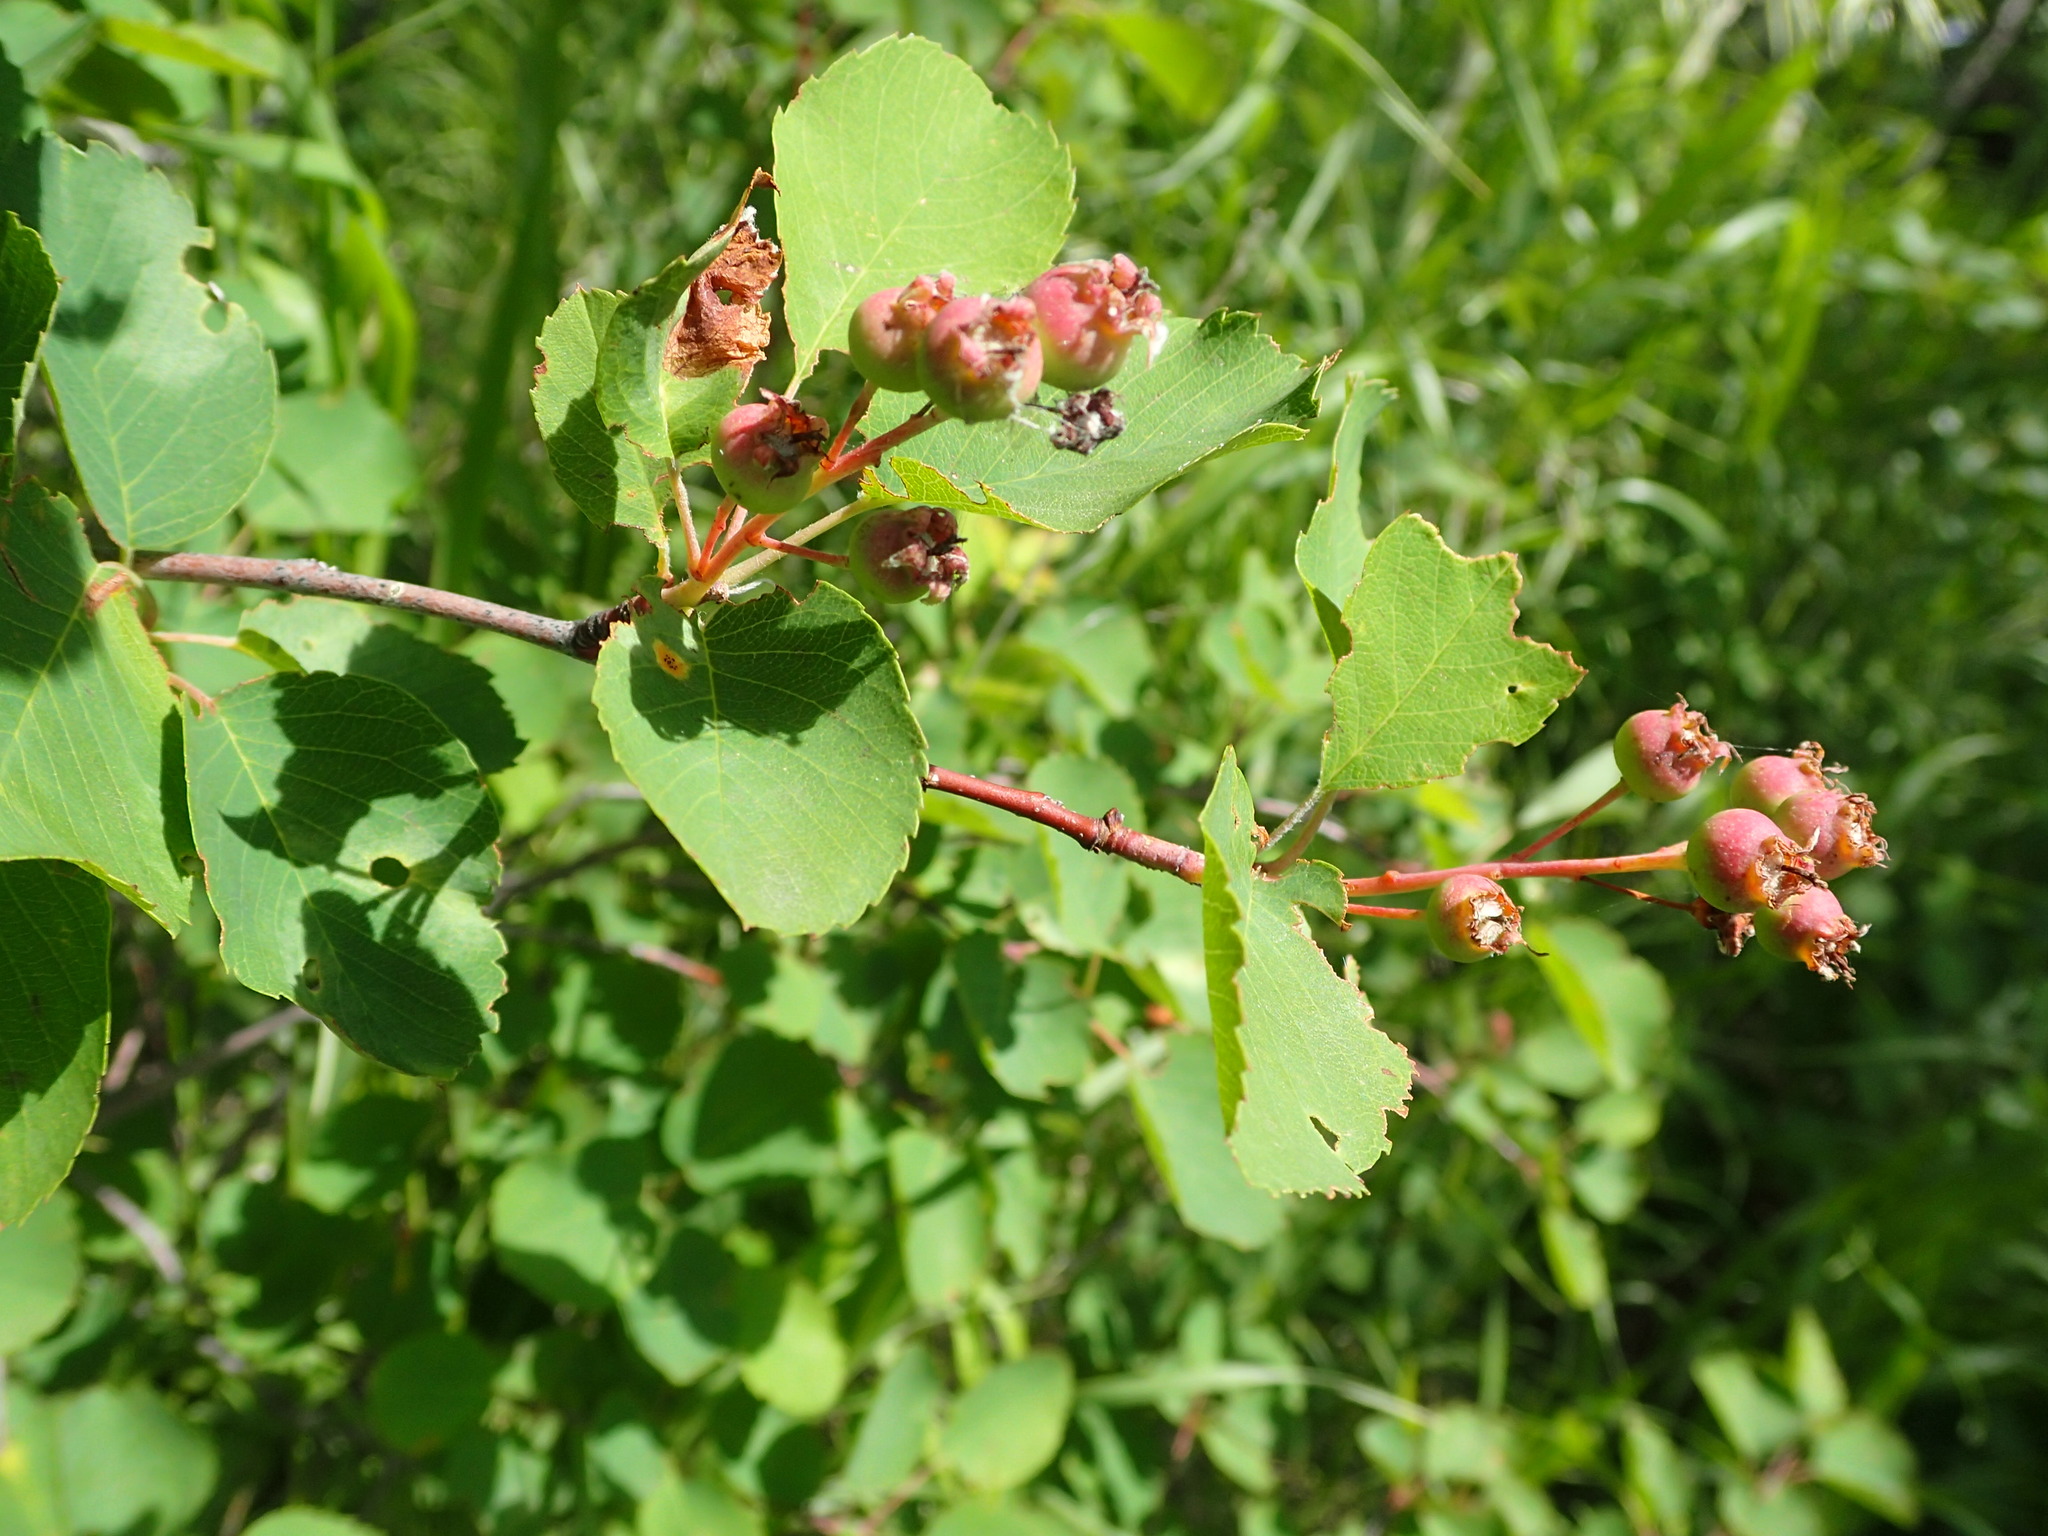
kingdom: Plantae
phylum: Tracheophyta
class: Magnoliopsida
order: Rosales
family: Rosaceae
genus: Amelanchier
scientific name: Amelanchier alnifolia
